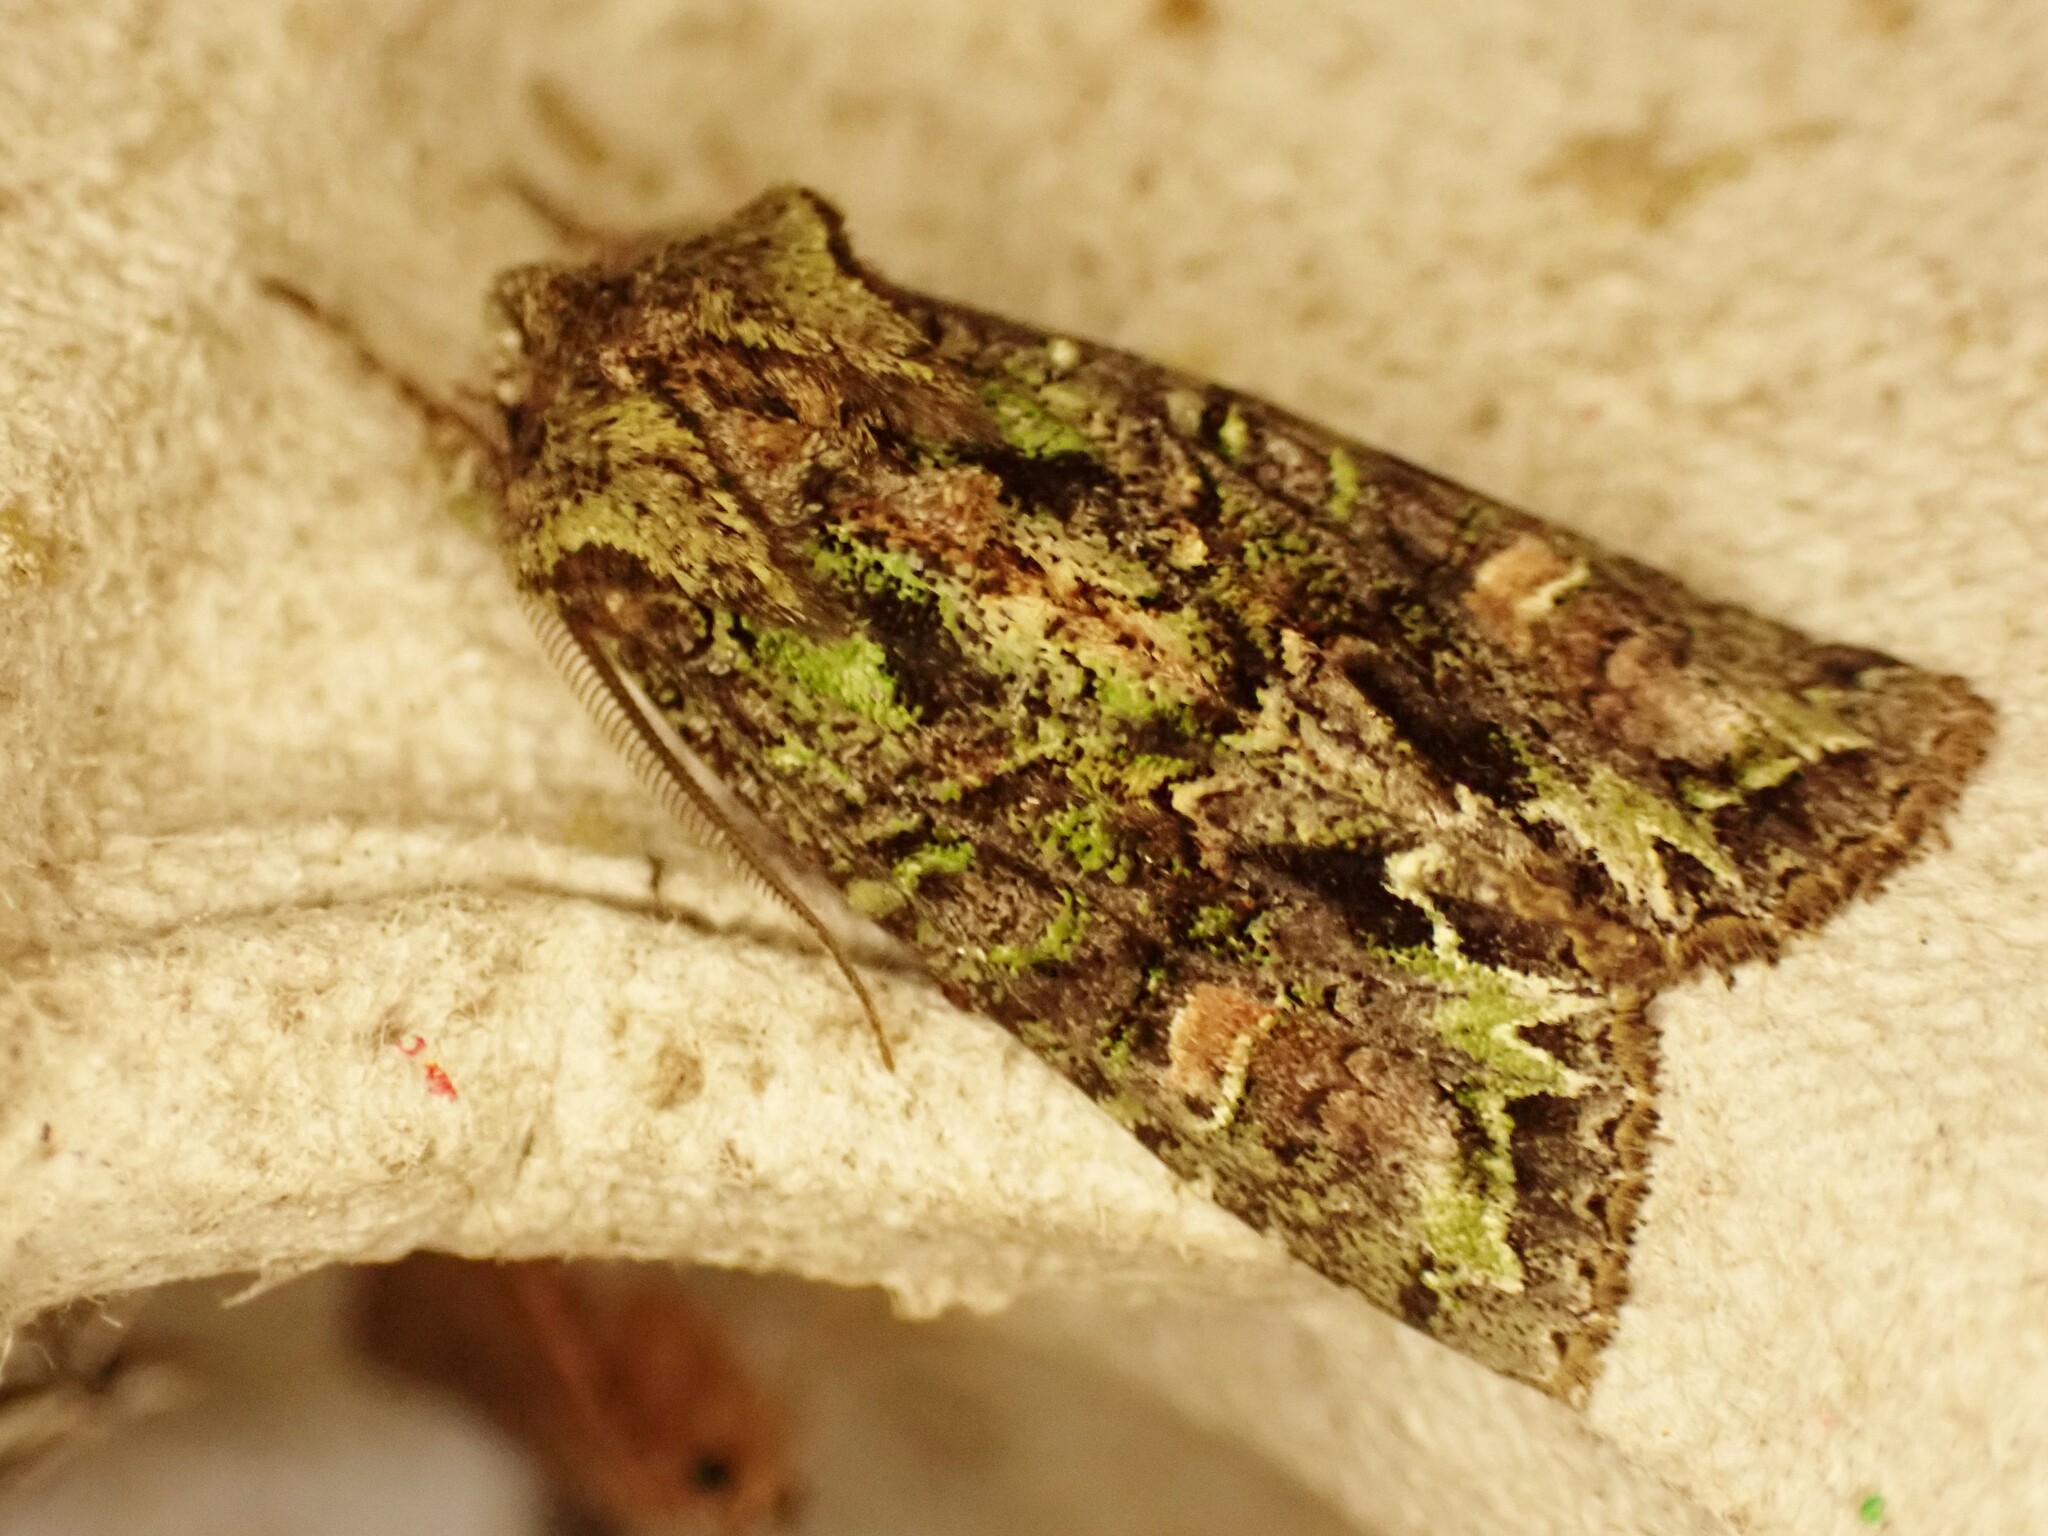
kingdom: Animalia
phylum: Arthropoda
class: Insecta
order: Lepidoptera
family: Noctuidae
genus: Ichneutica
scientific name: Ichneutica
